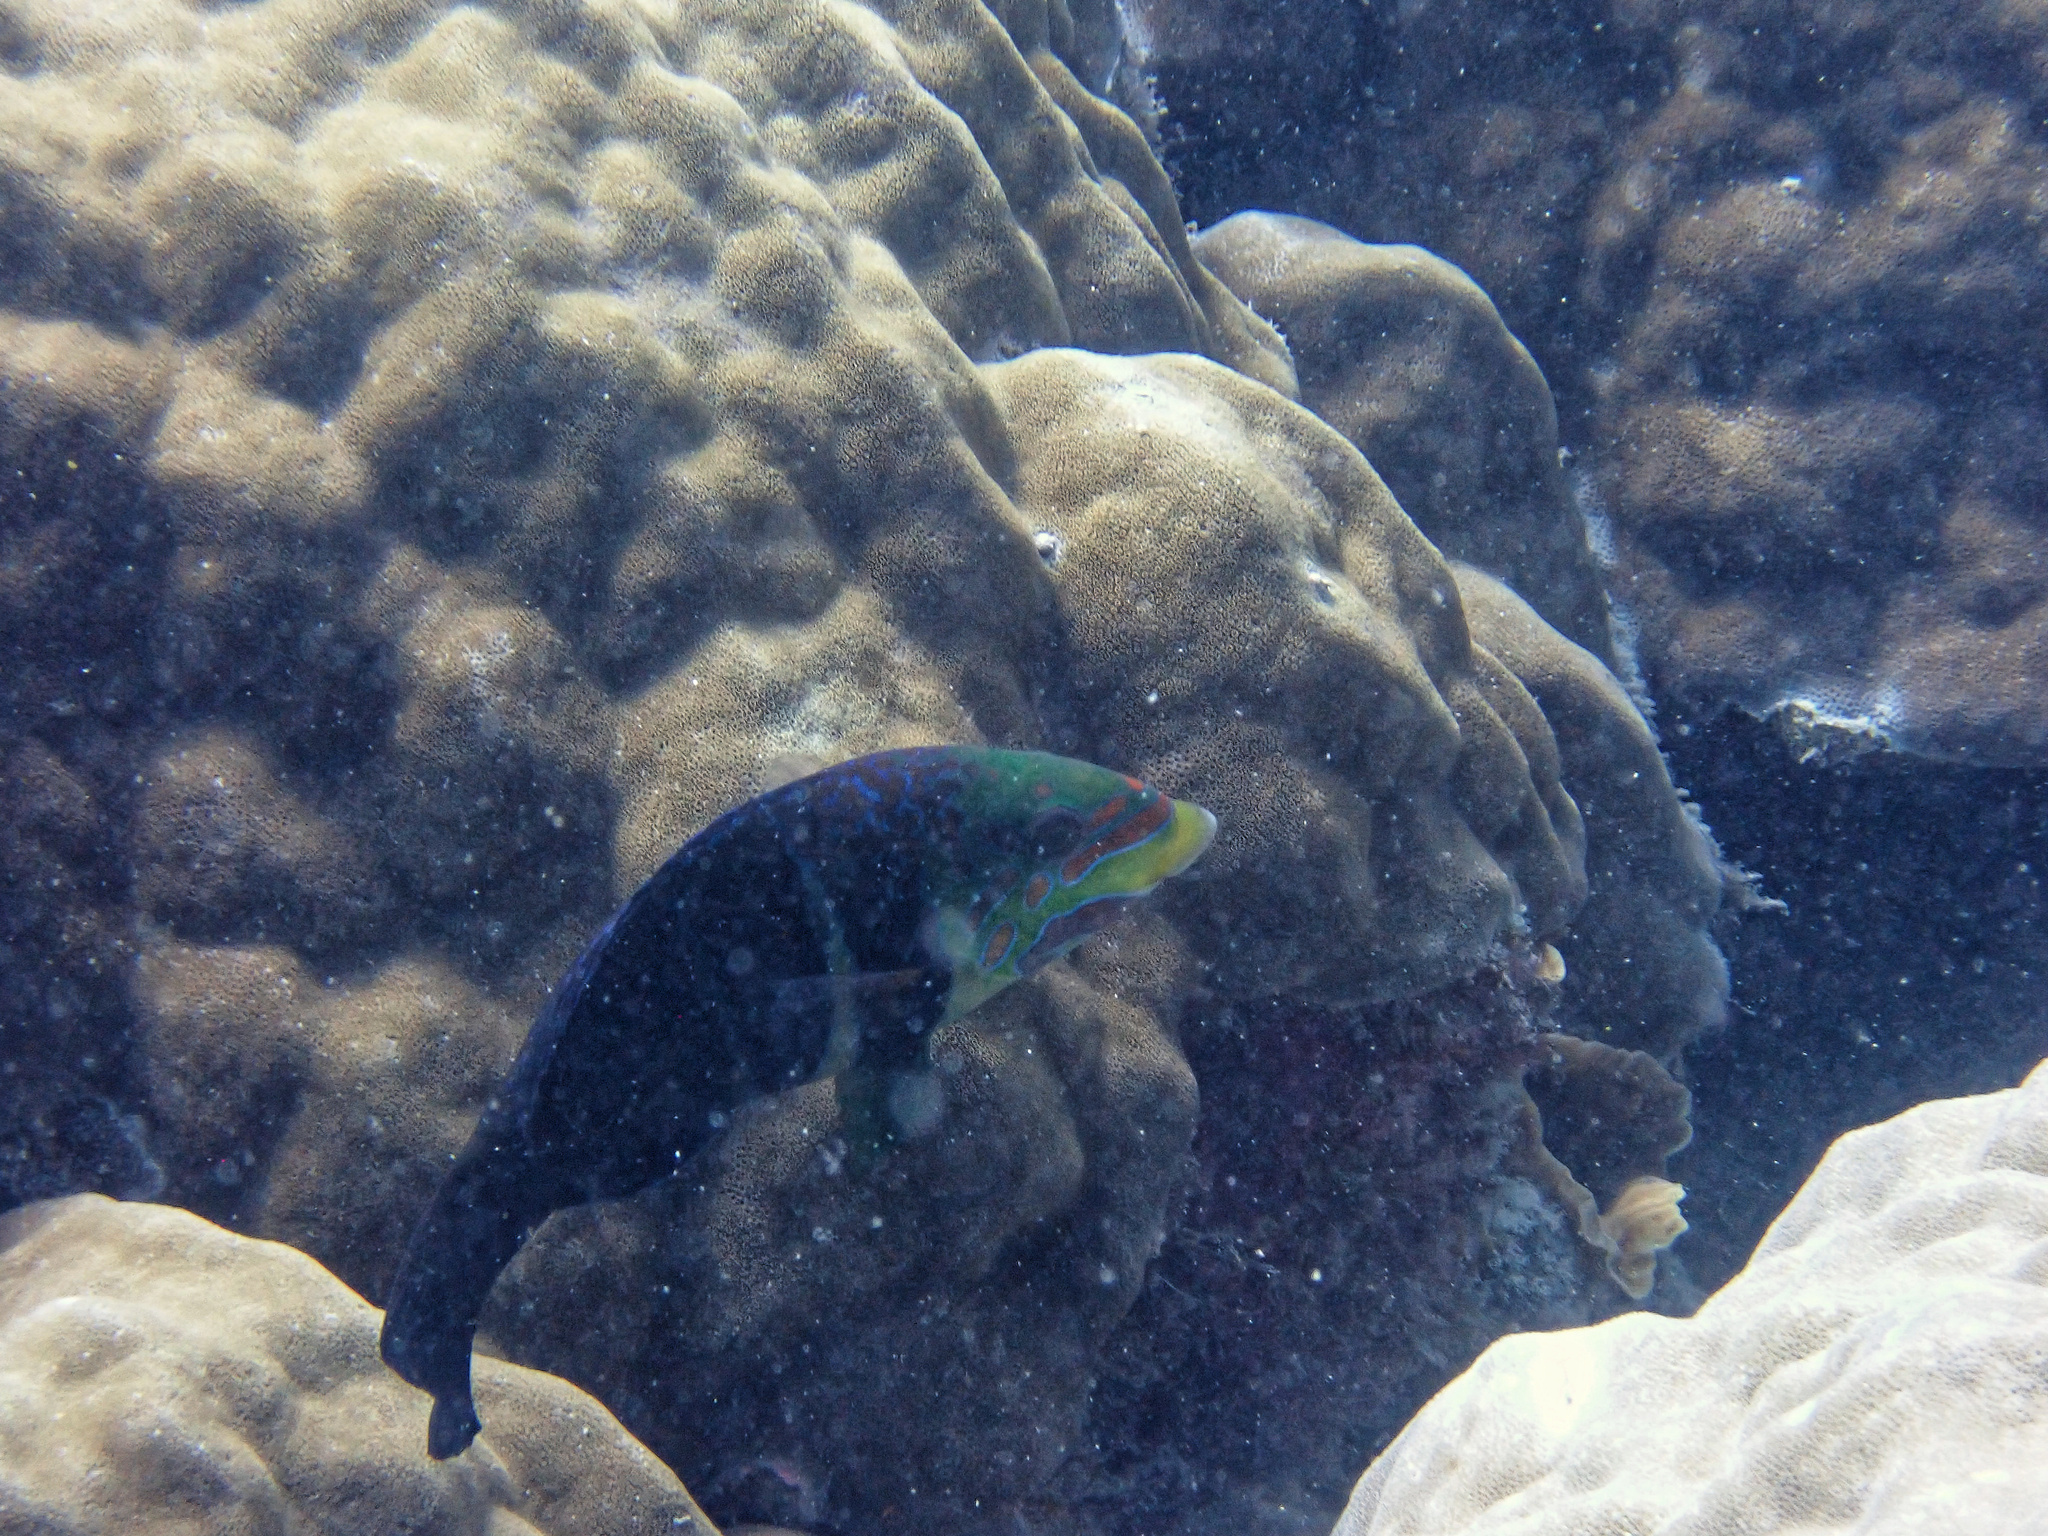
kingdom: Animalia
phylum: Chordata
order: Perciformes
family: Labridae
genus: Hemigymnus
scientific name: Hemigymnus fasciatus
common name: Barred thicklip
